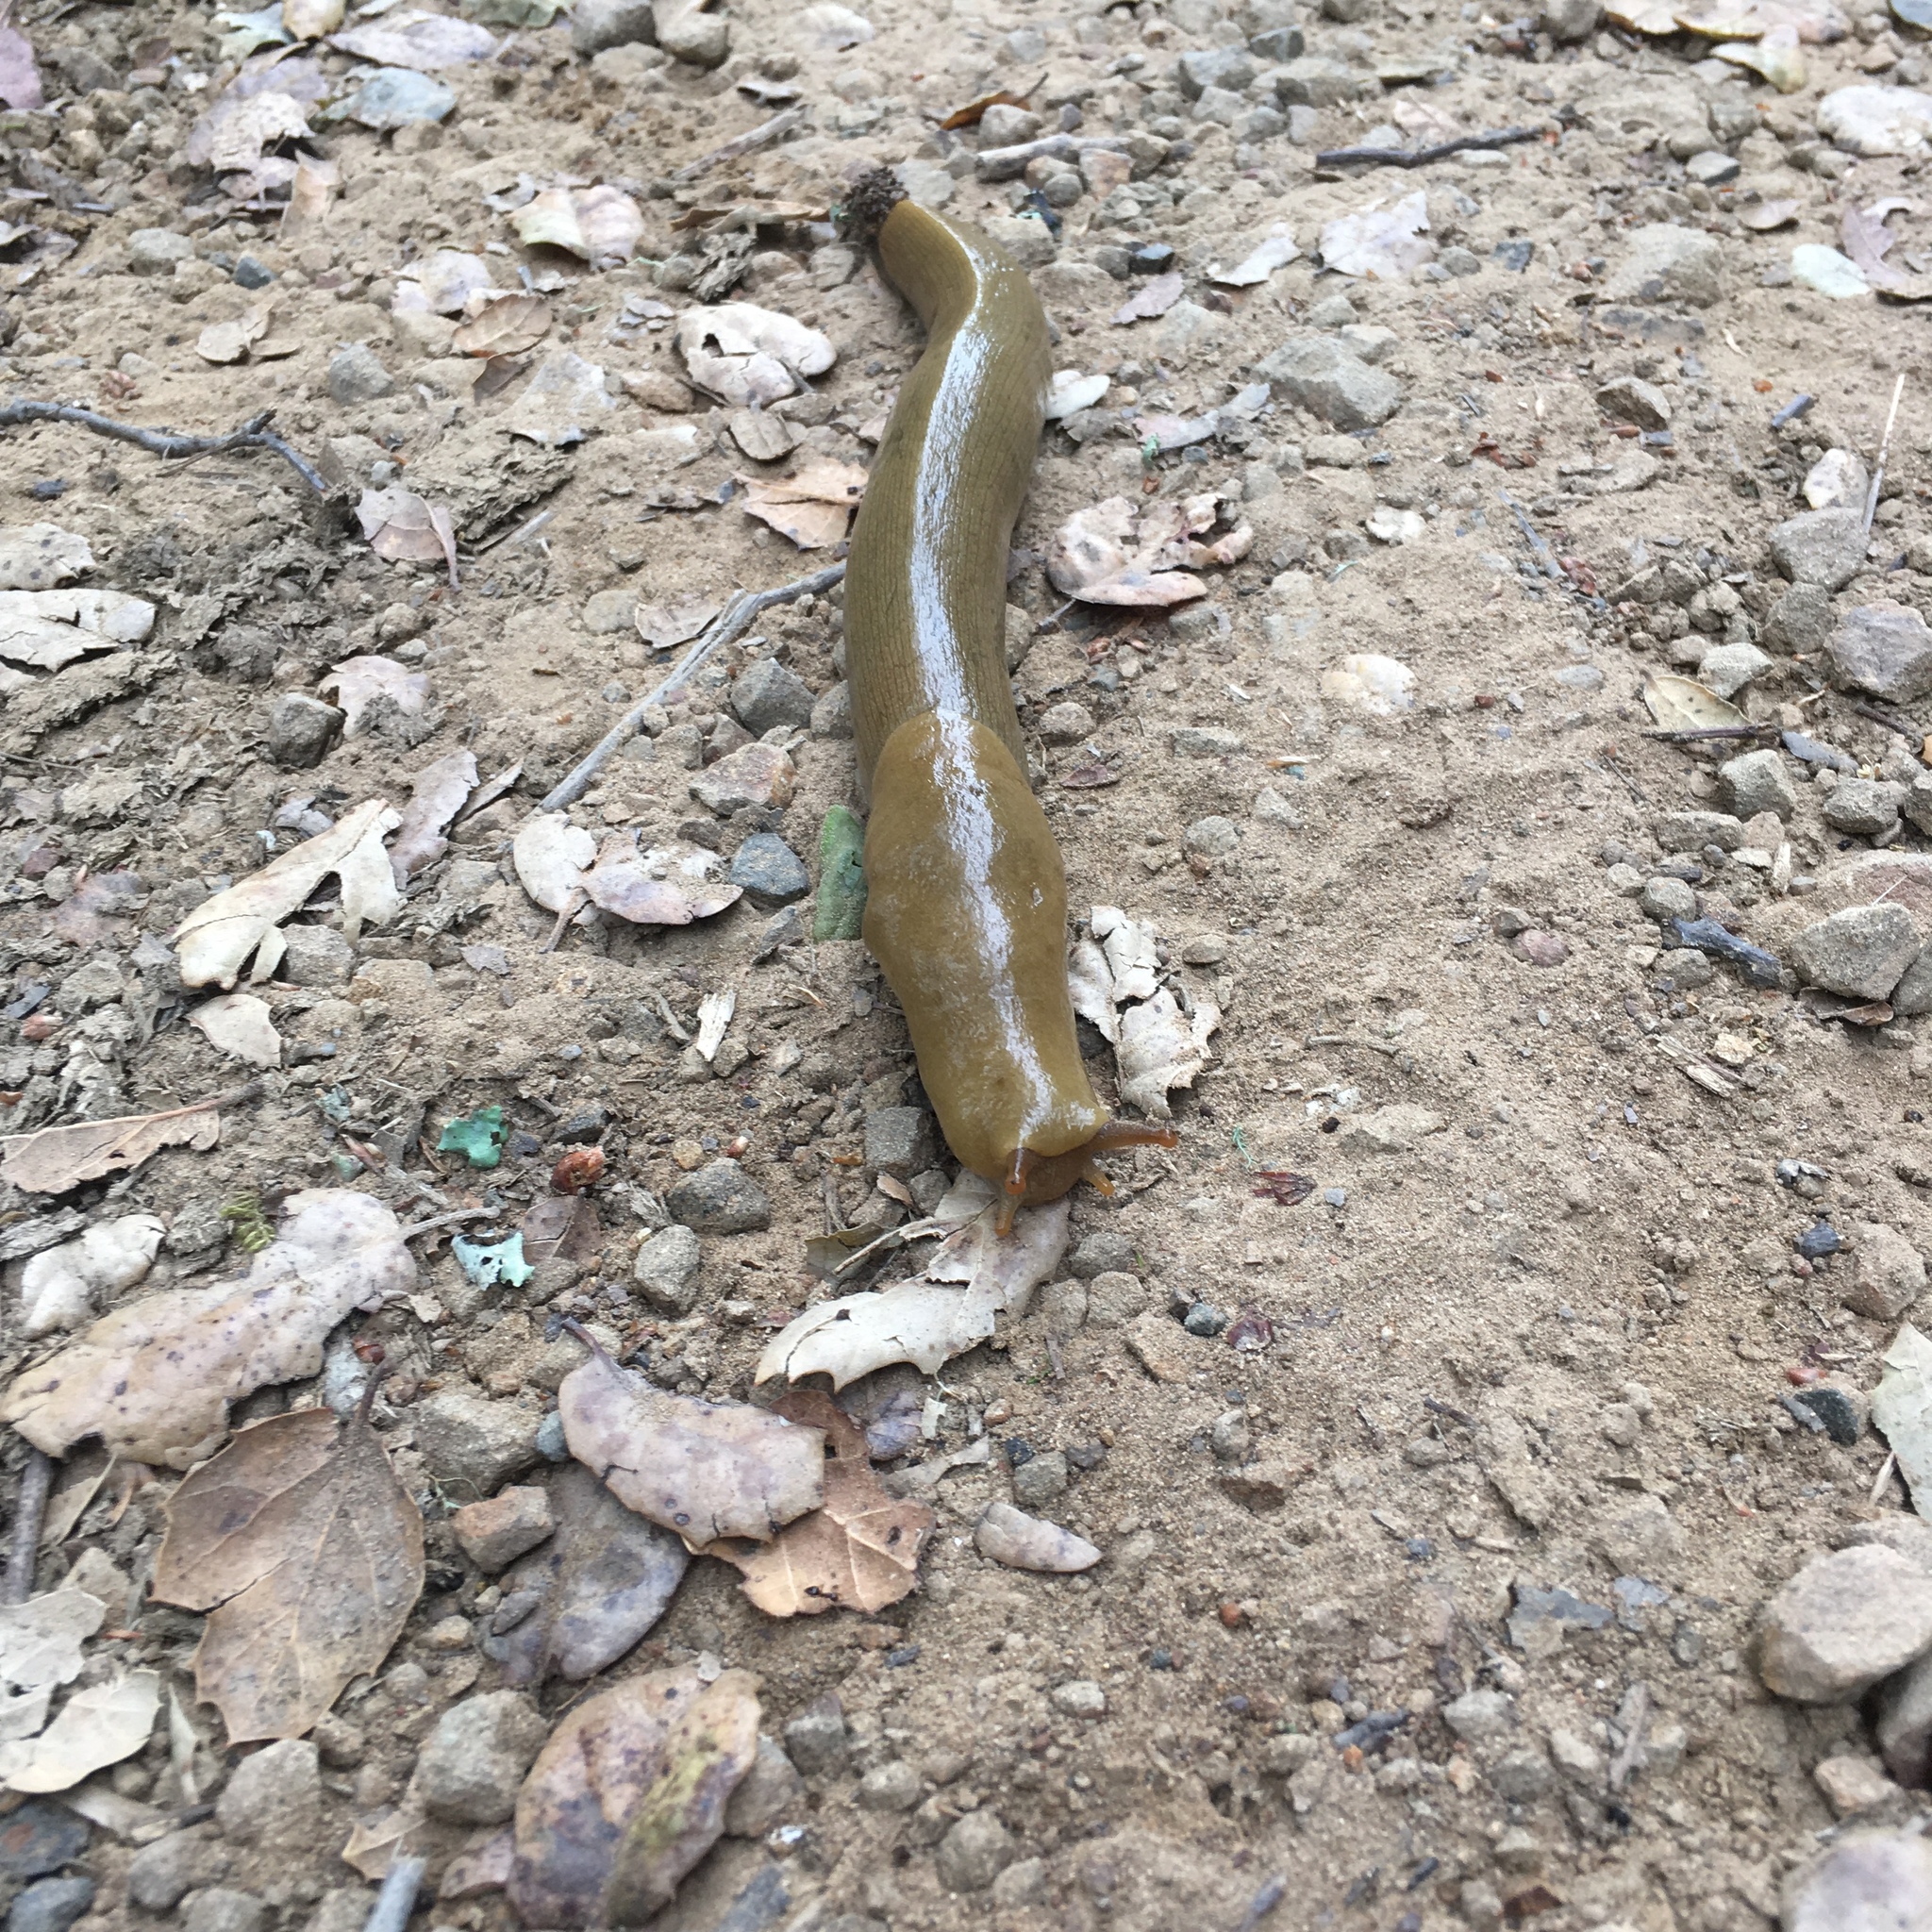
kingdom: Animalia
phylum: Mollusca
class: Gastropoda
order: Stylommatophora
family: Ariolimacidae
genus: Ariolimax
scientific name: Ariolimax buttoni
